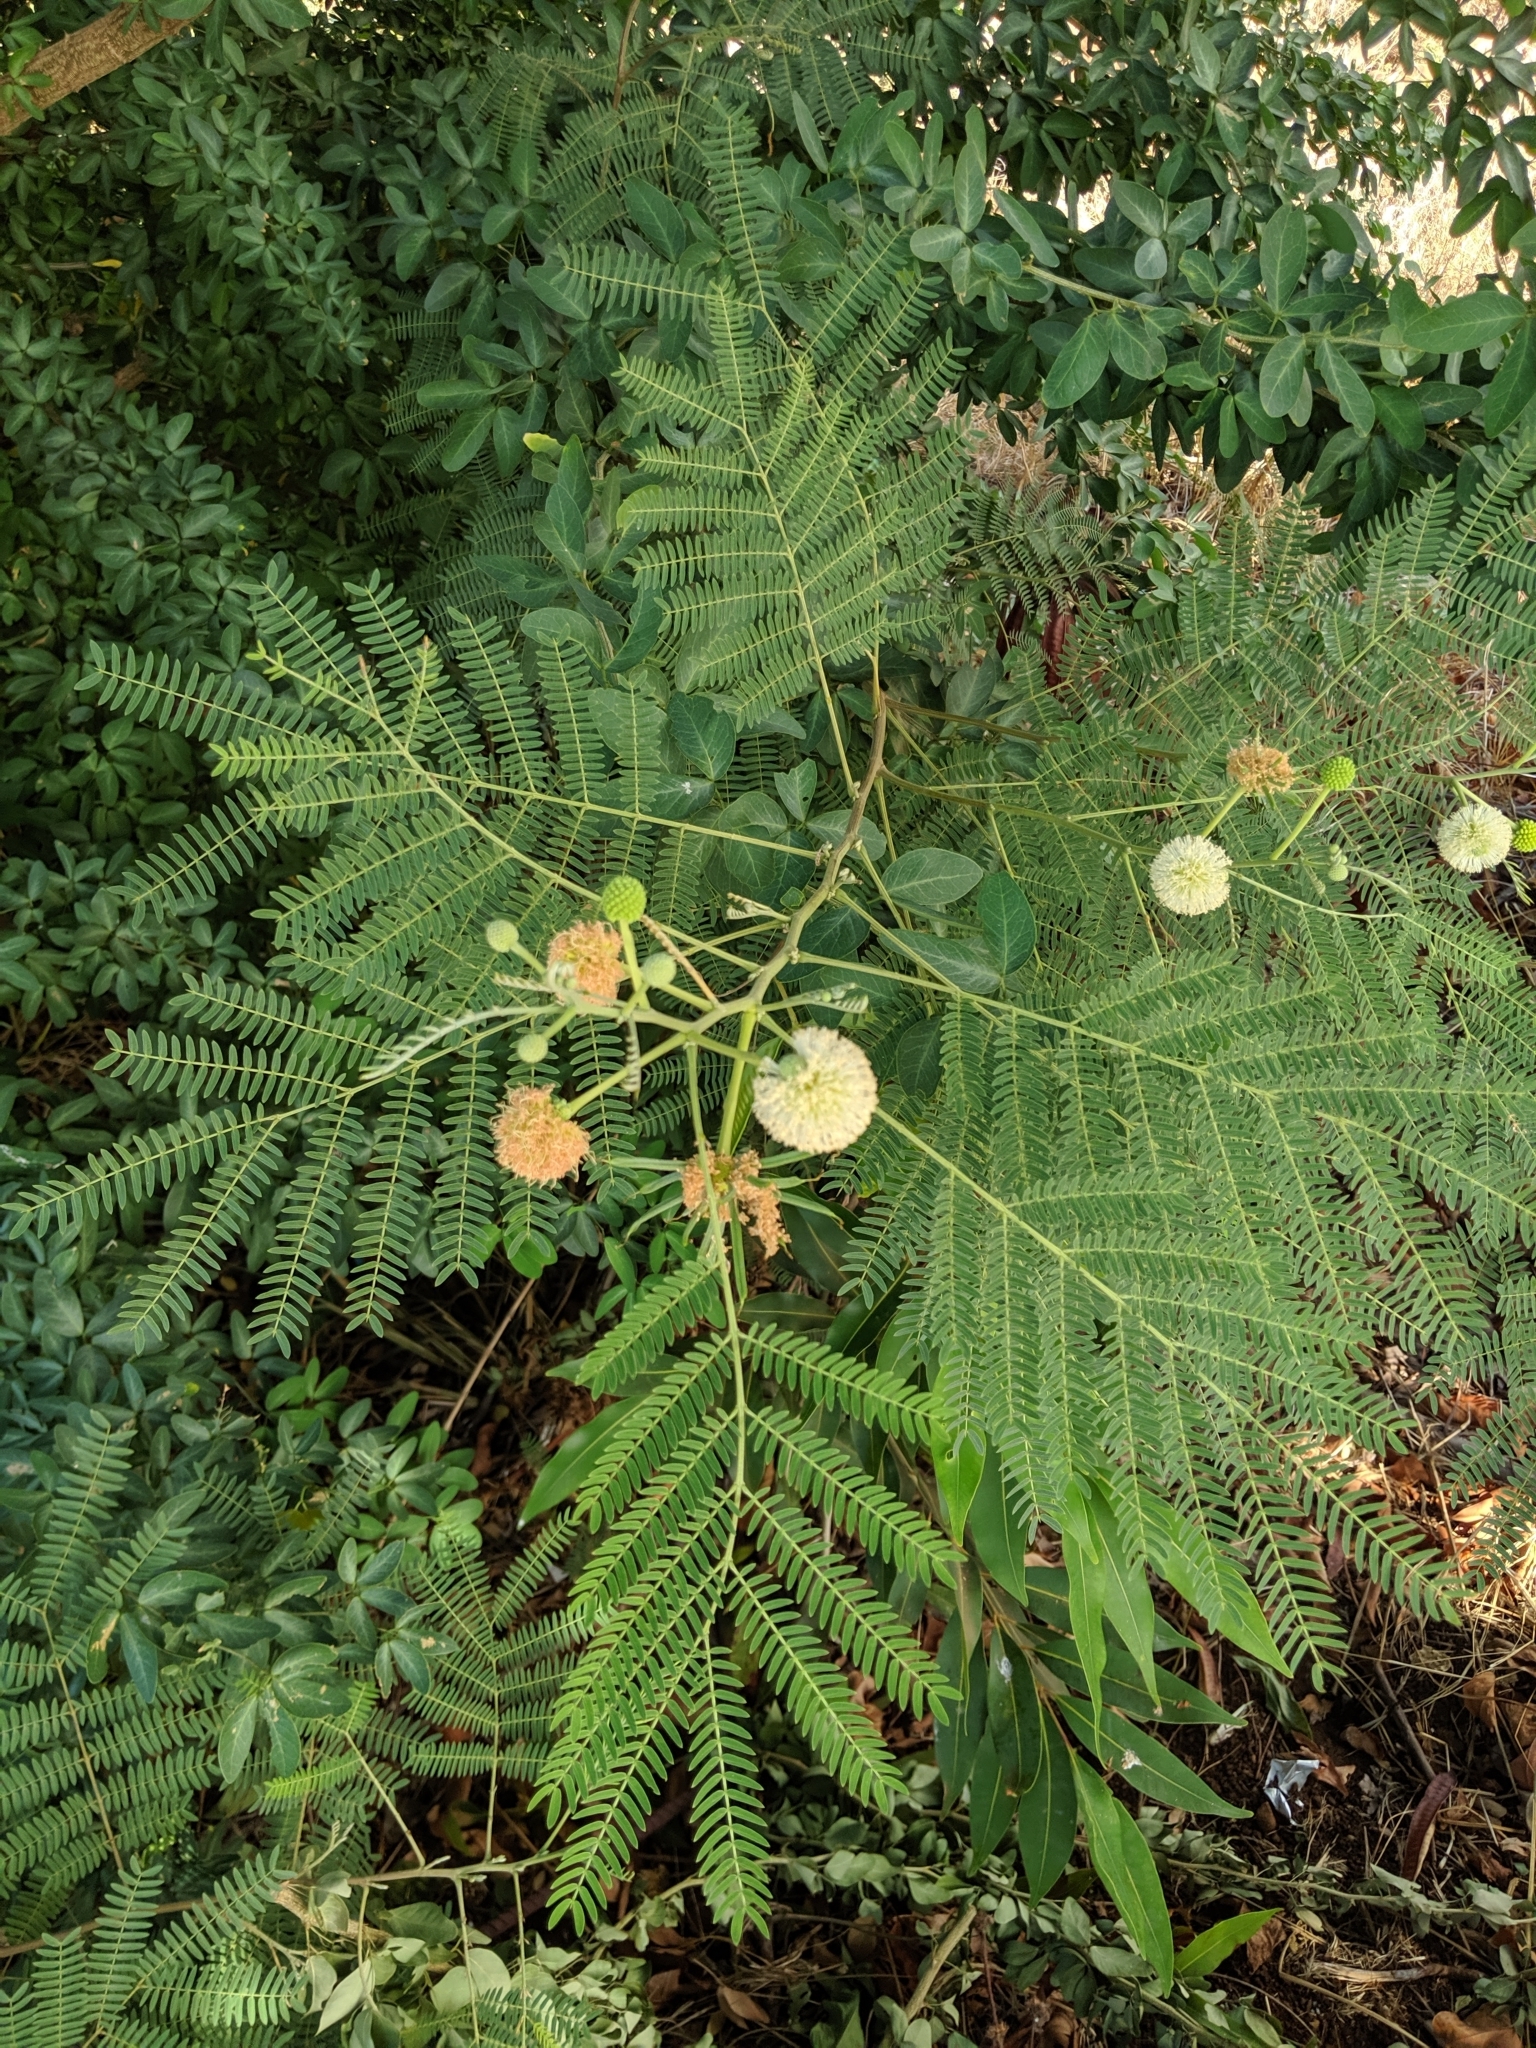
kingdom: Plantae
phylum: Tracheophyta
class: Magnoliopsida
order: Fabales
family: Fabaceae
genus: Leucaena
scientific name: Leucaena leucocephala
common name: White leadtree
